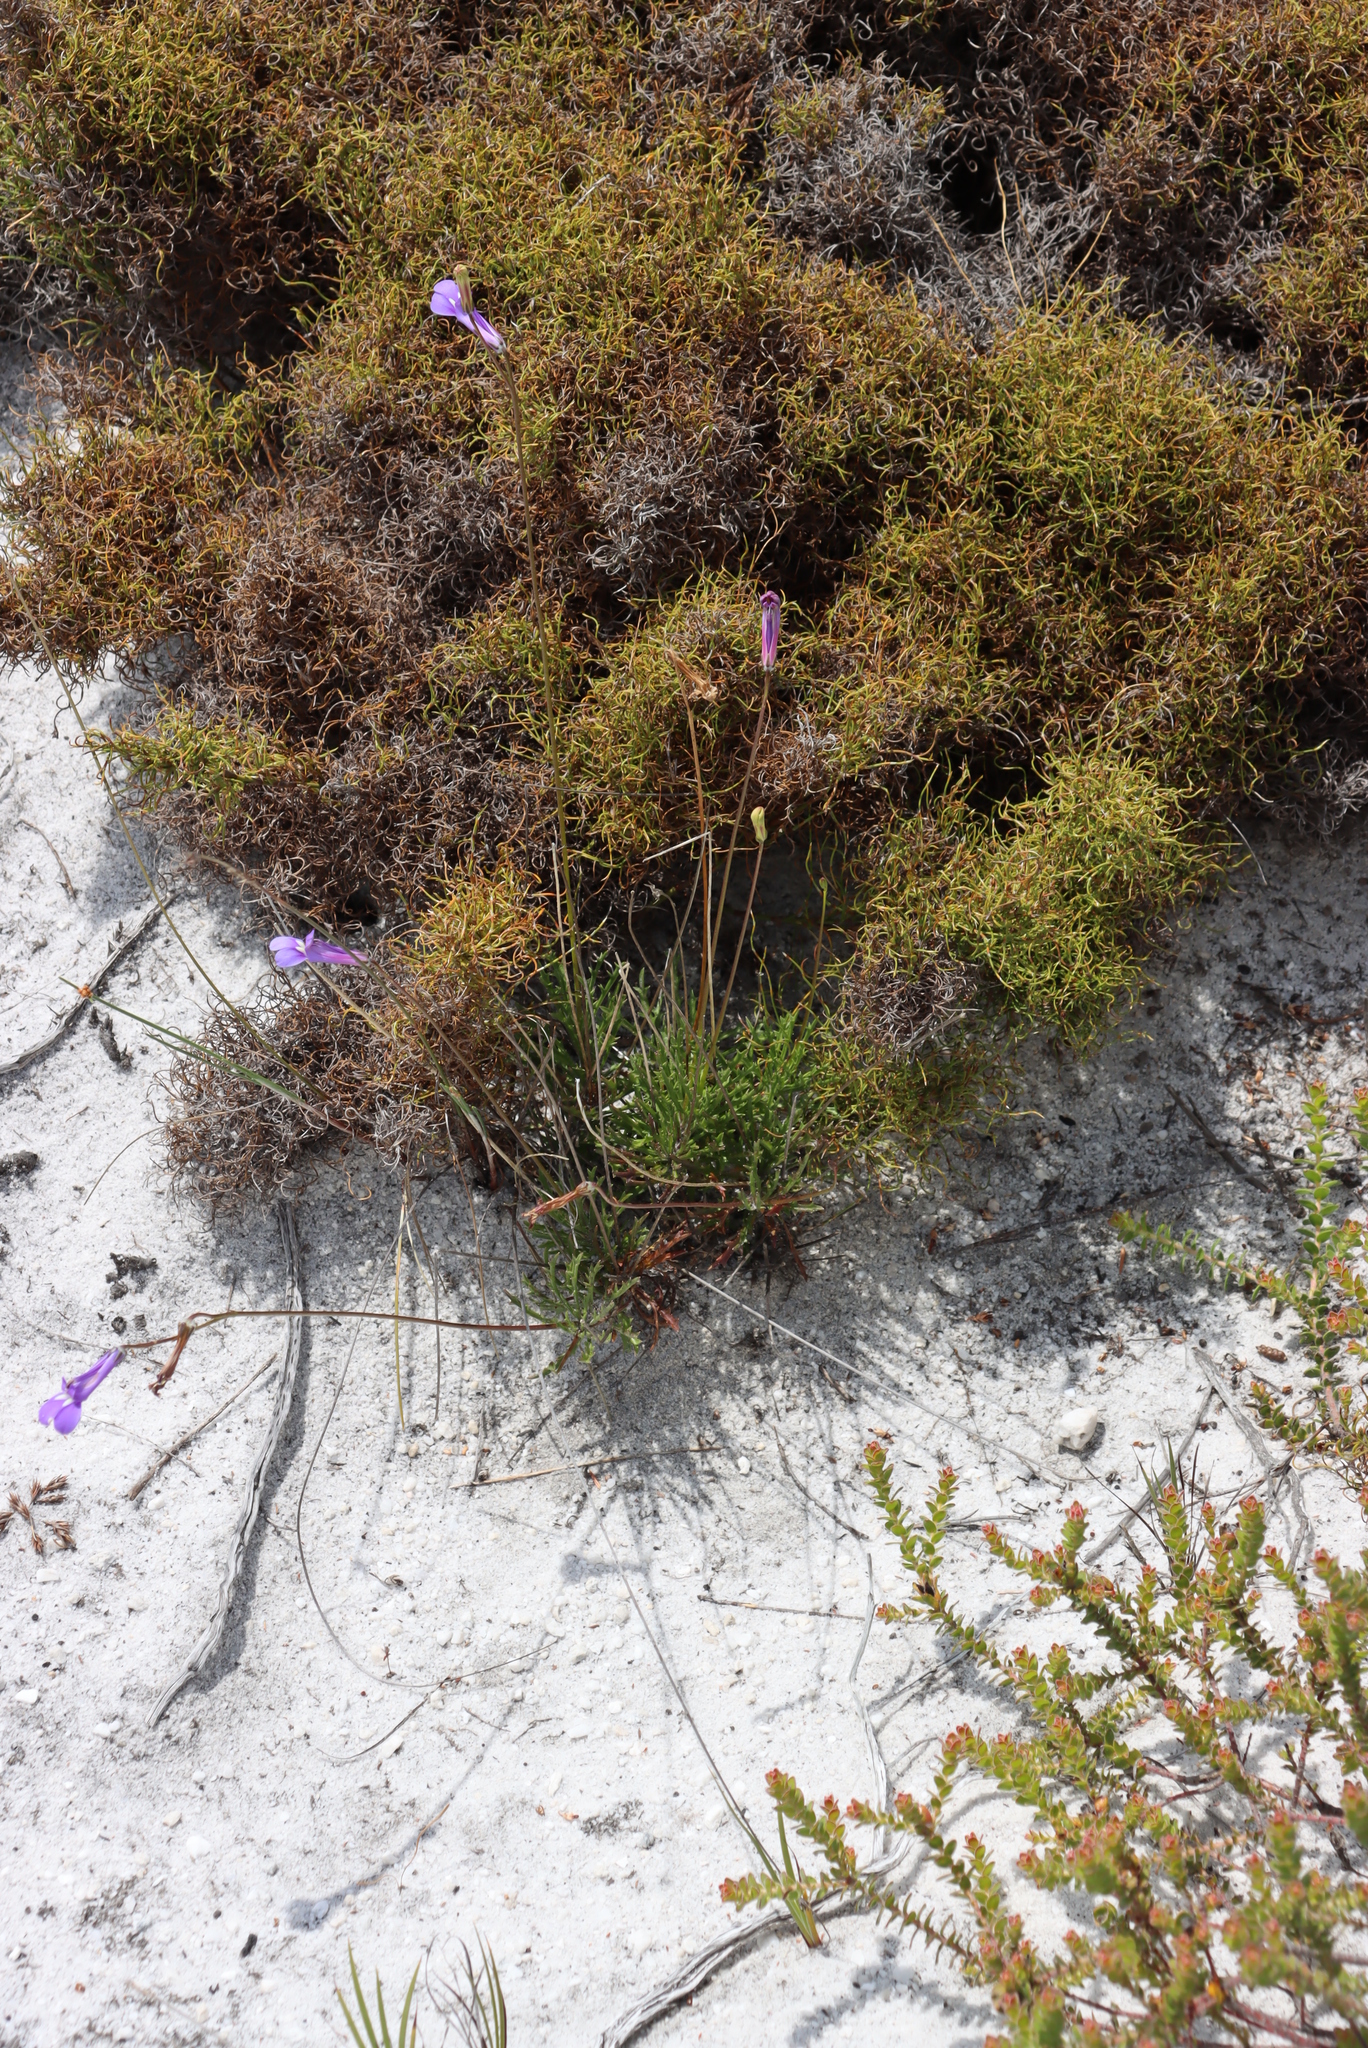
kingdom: Plantae
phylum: Tracheophyta
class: Magnoliopsida
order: Asterales
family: Campanulaceae
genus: Lobelia
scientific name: Lobelia coronopifolia
